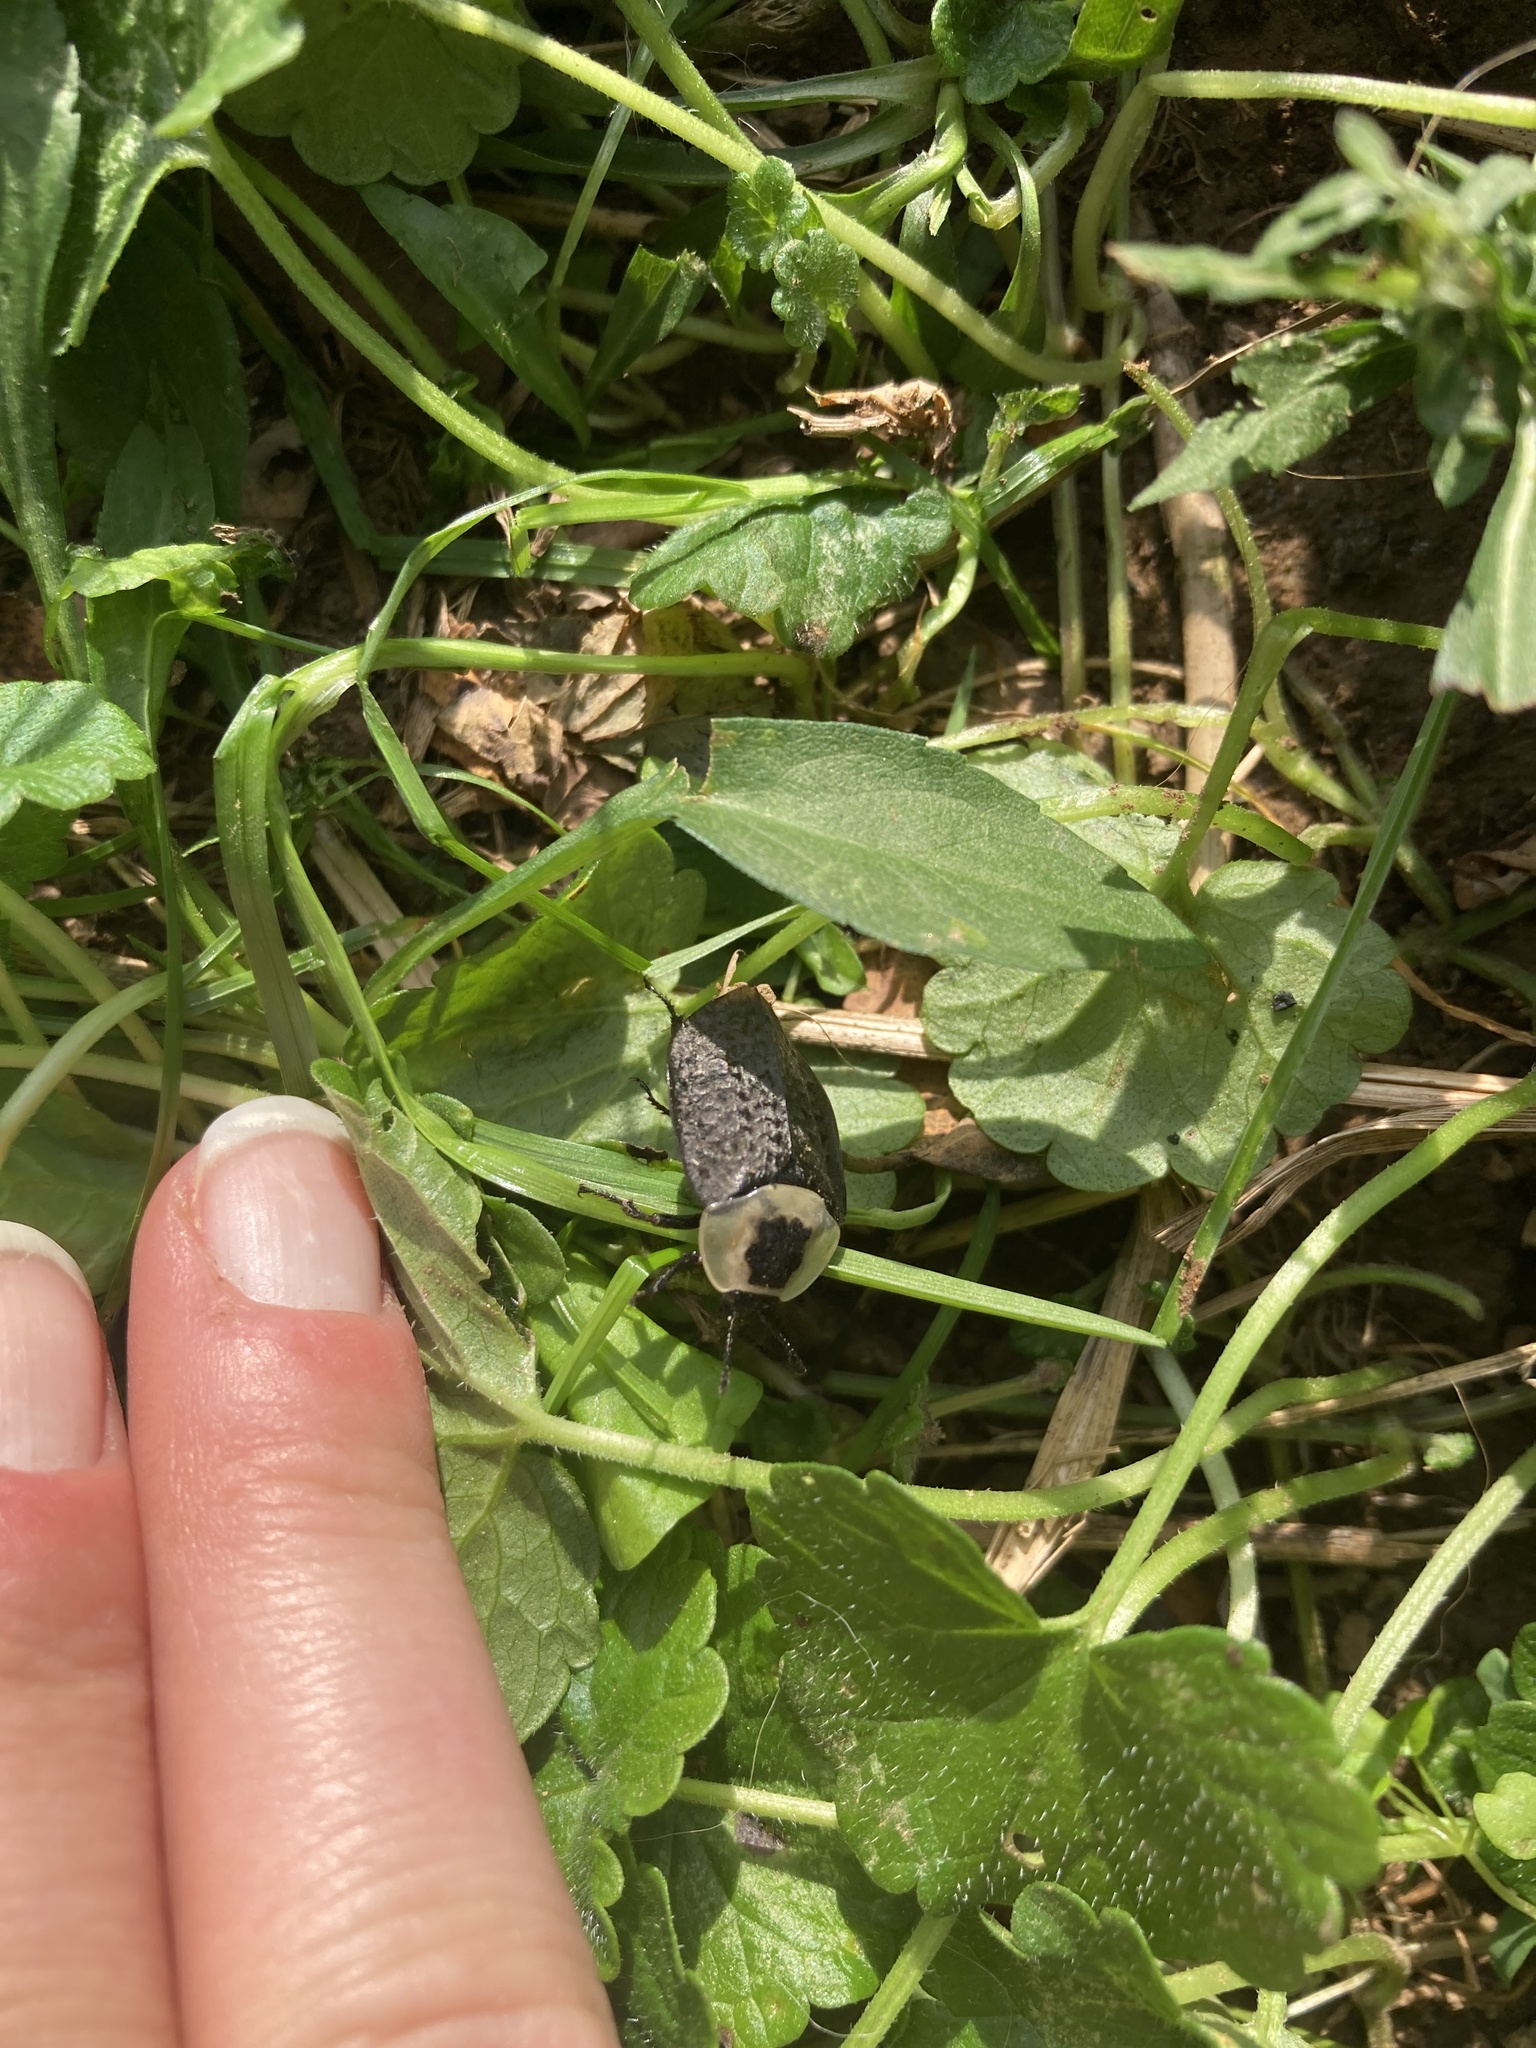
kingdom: Animalia
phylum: Arthropoda
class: Insecta
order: Coleoptera
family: Staphylinidae
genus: Necrophila
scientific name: Necrophila americana
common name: American carrion beetle
